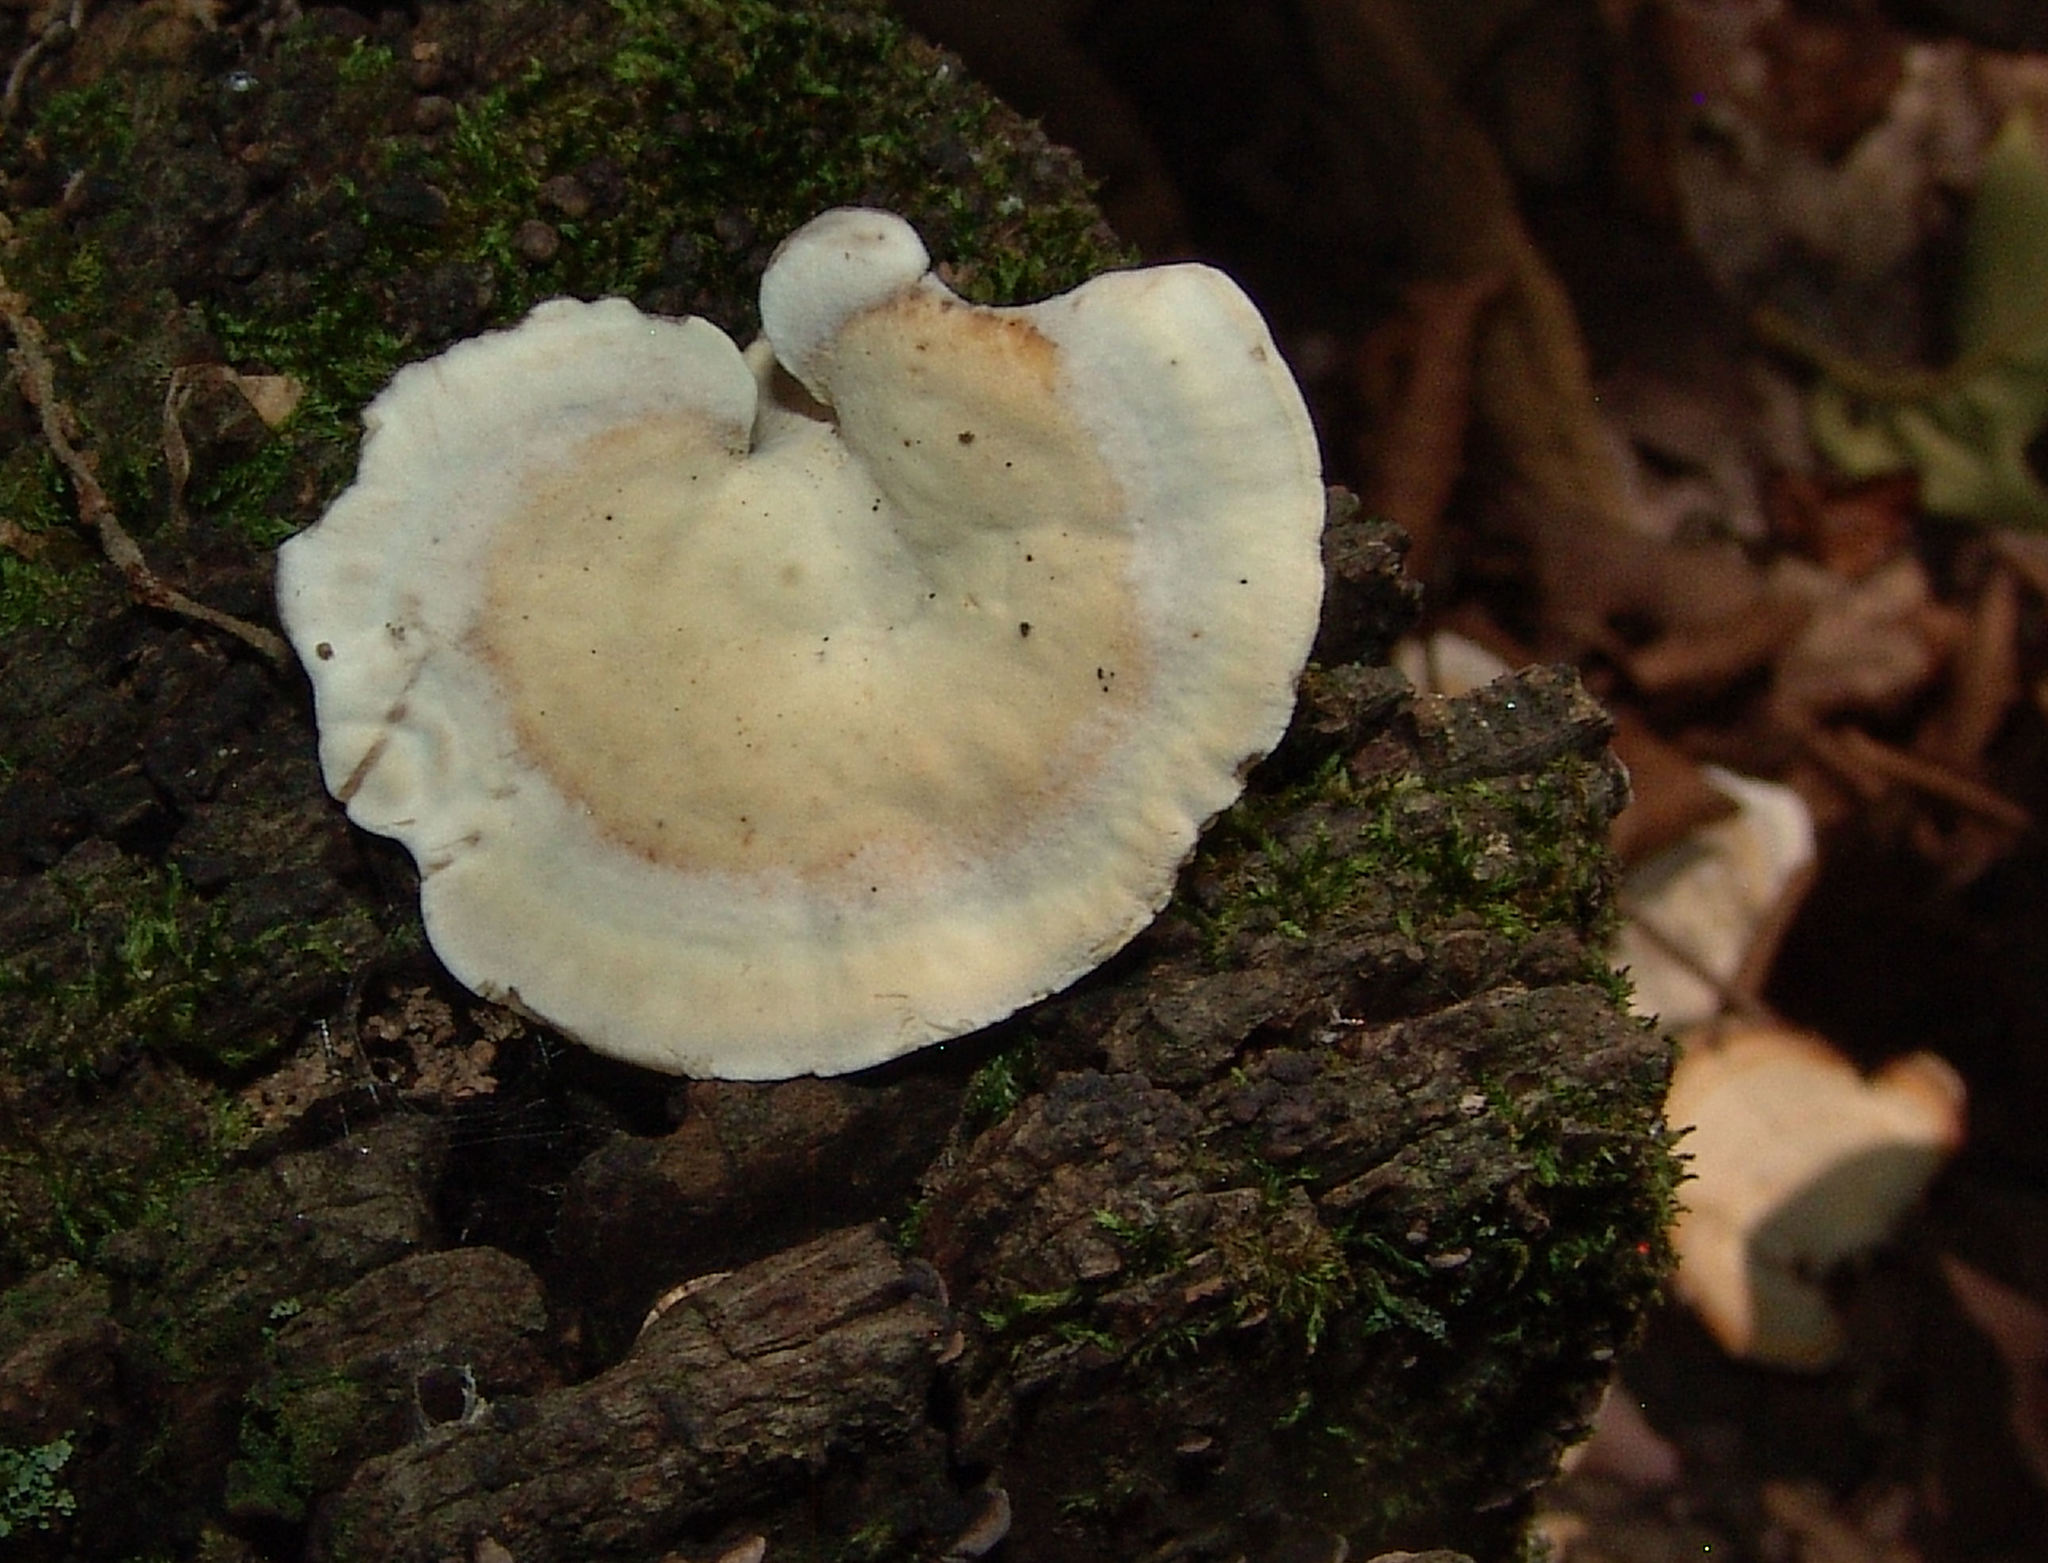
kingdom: Fungi
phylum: Basidiomycota
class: Agaricomycetes
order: Polyporales
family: Steccherinaceae
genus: Mycorrhaphium
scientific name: Mycorrhaphium adustum
